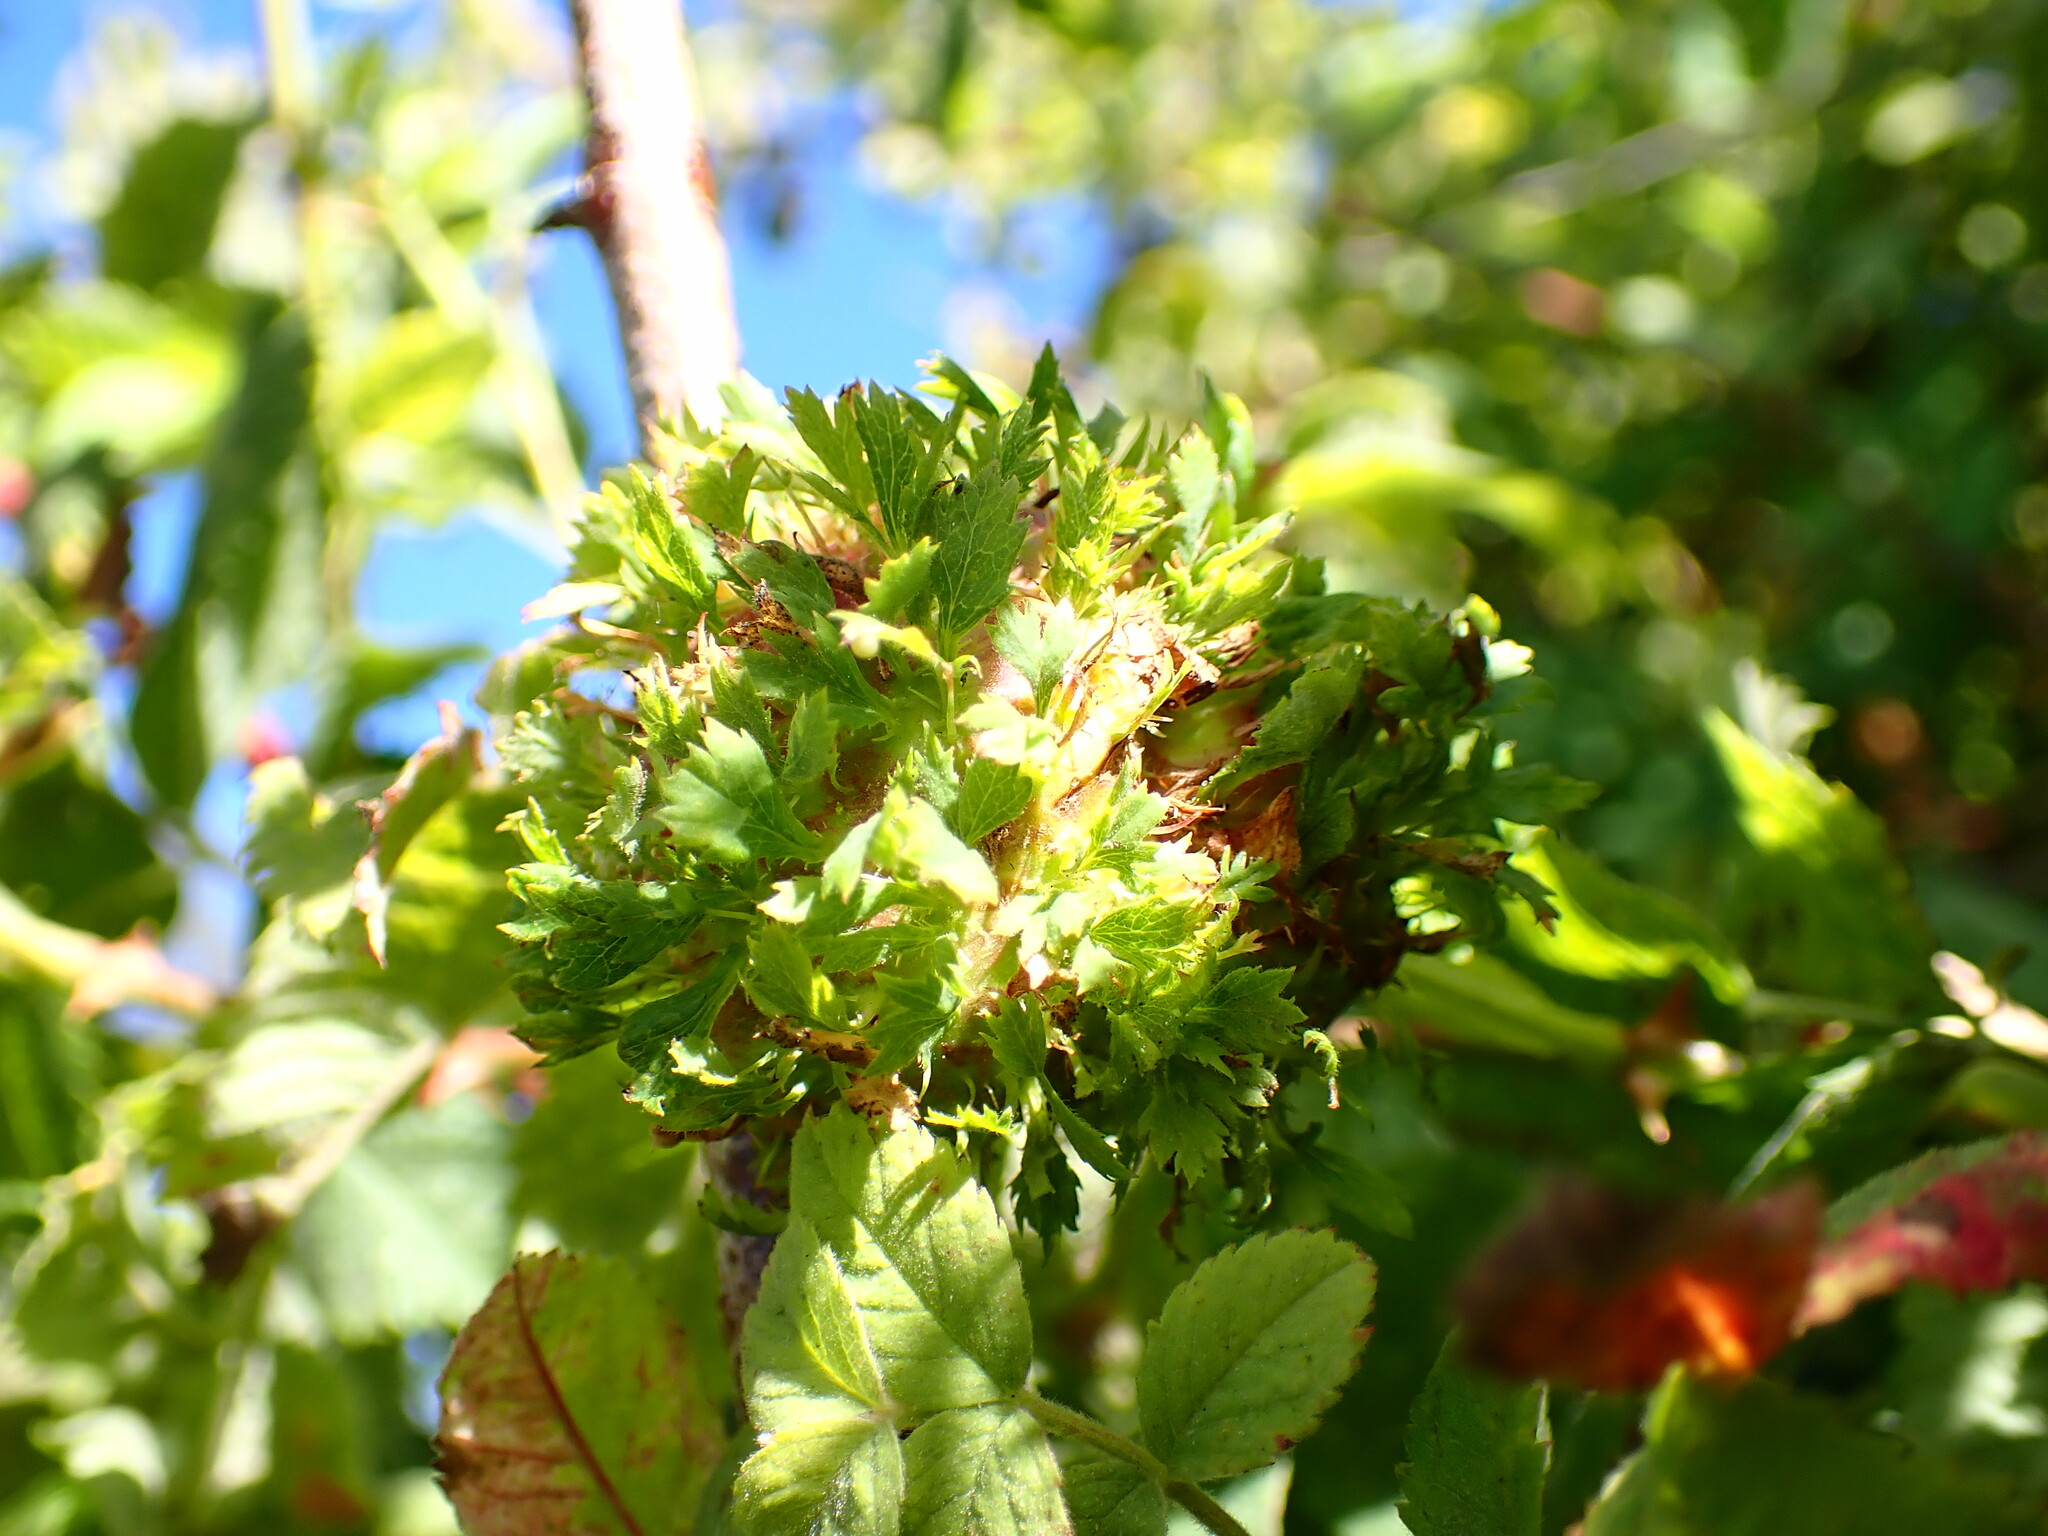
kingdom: Animalia
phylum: Arthropoda
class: Insecta
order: Hymenoptera
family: Cynipidae
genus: Diplolepis
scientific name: Diplolepis californica
